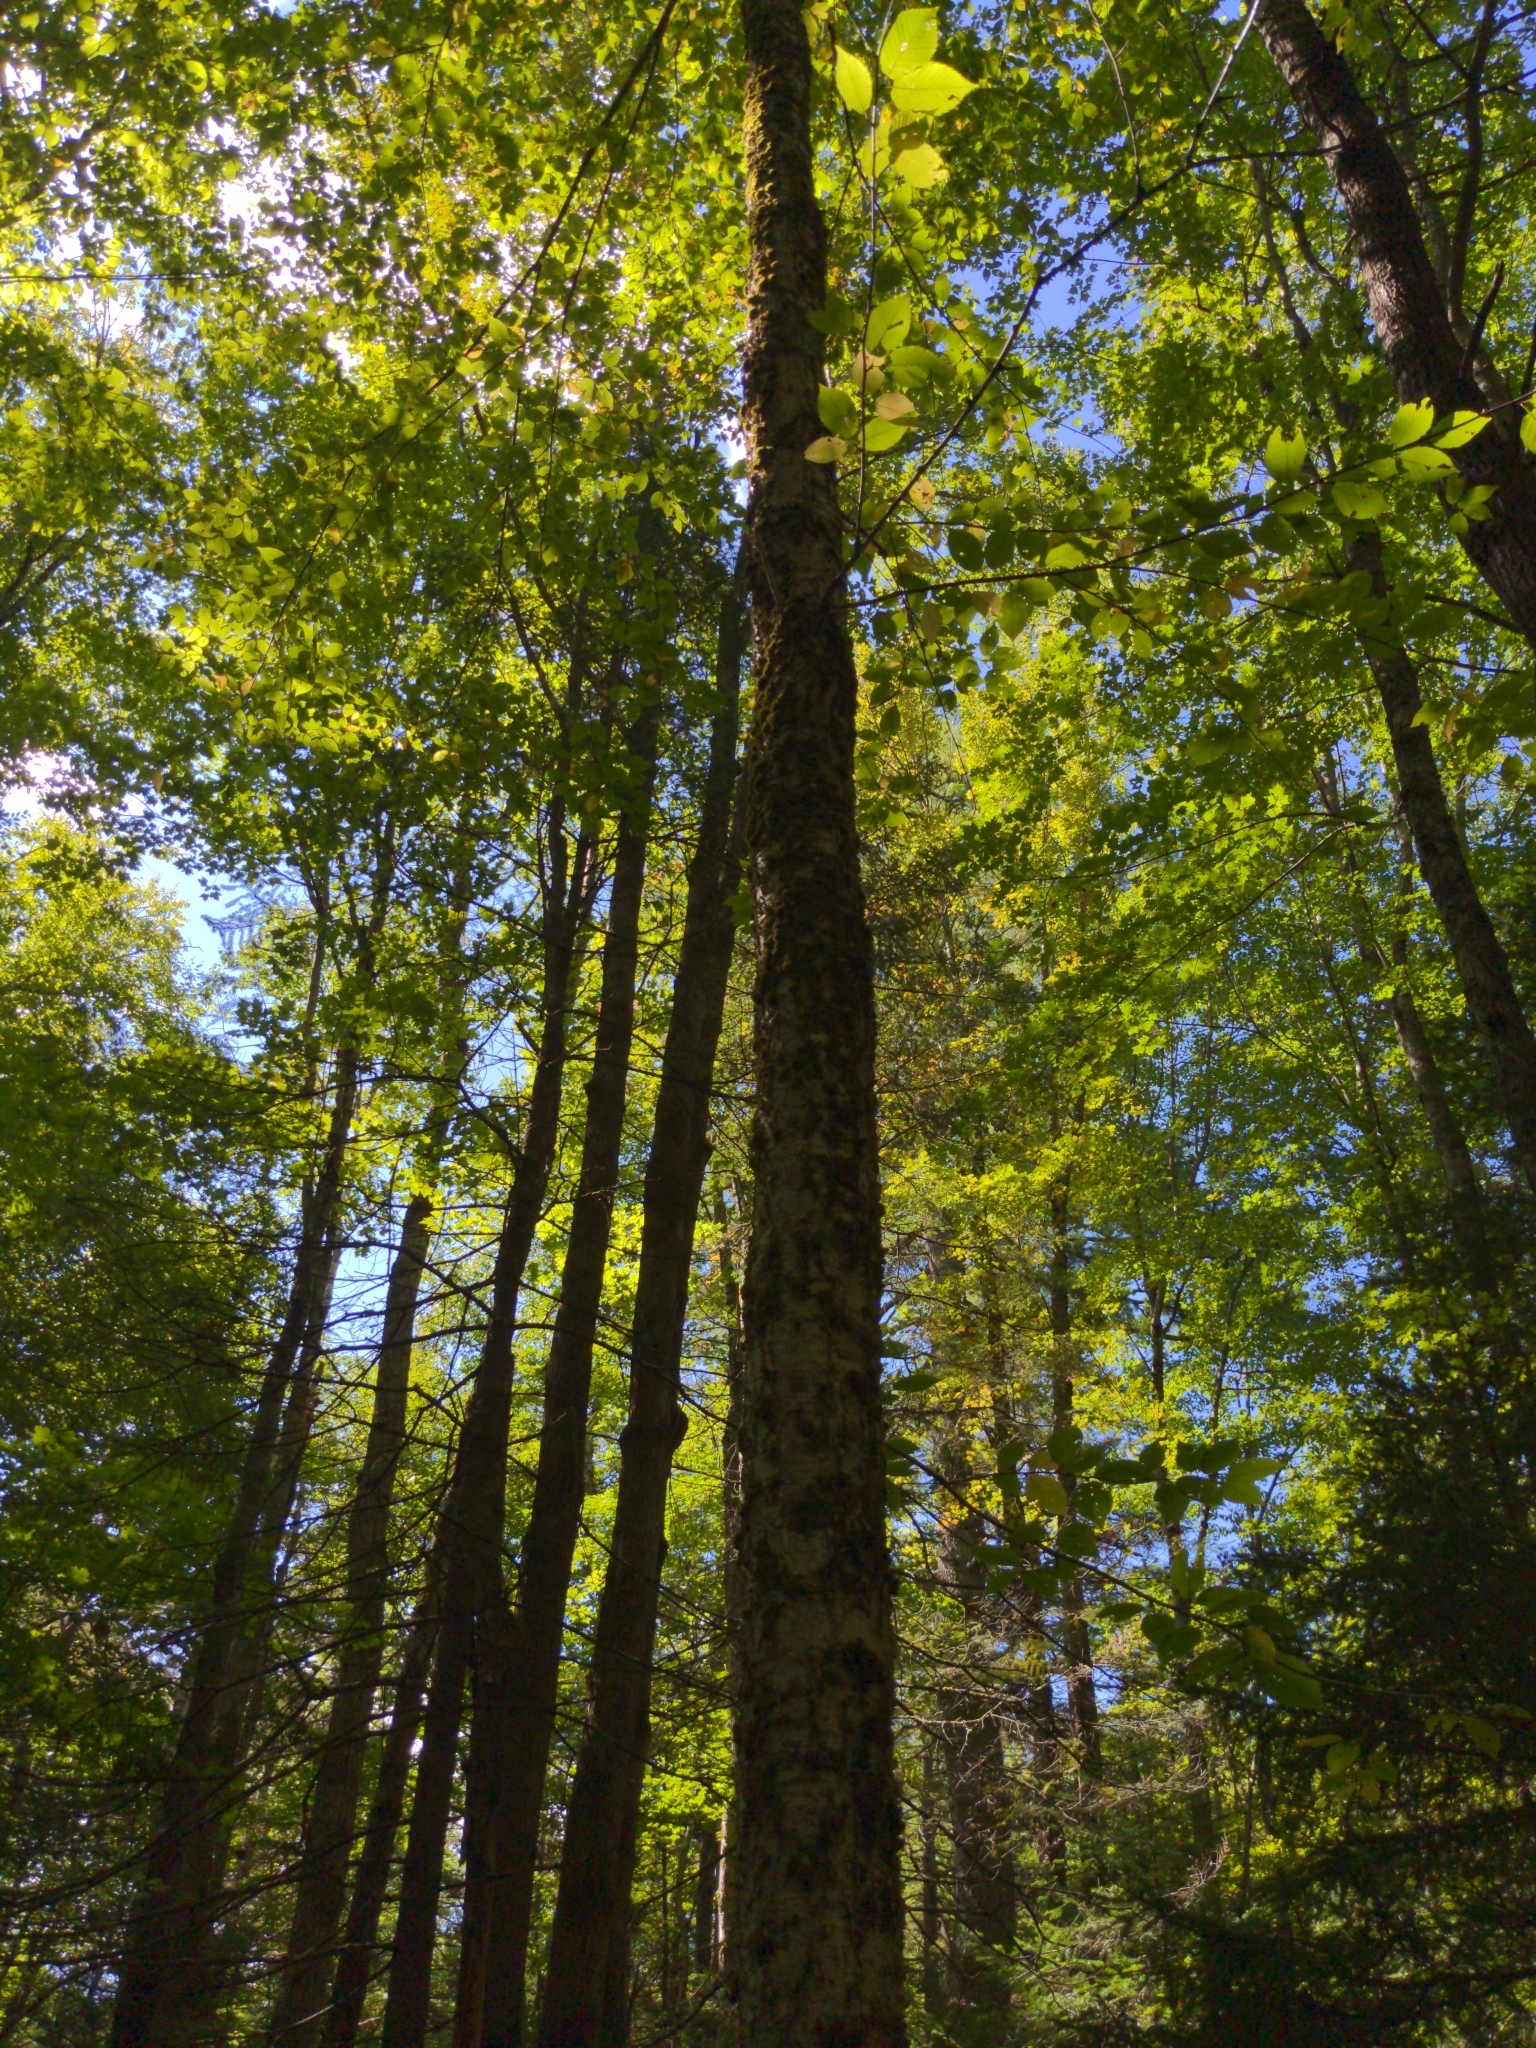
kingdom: Plantae
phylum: Tracheophyta
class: Magnoliopsida
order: Fagales
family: Betulaceae
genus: Betula
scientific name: Betula alleghaniensis
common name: Yellow birch
